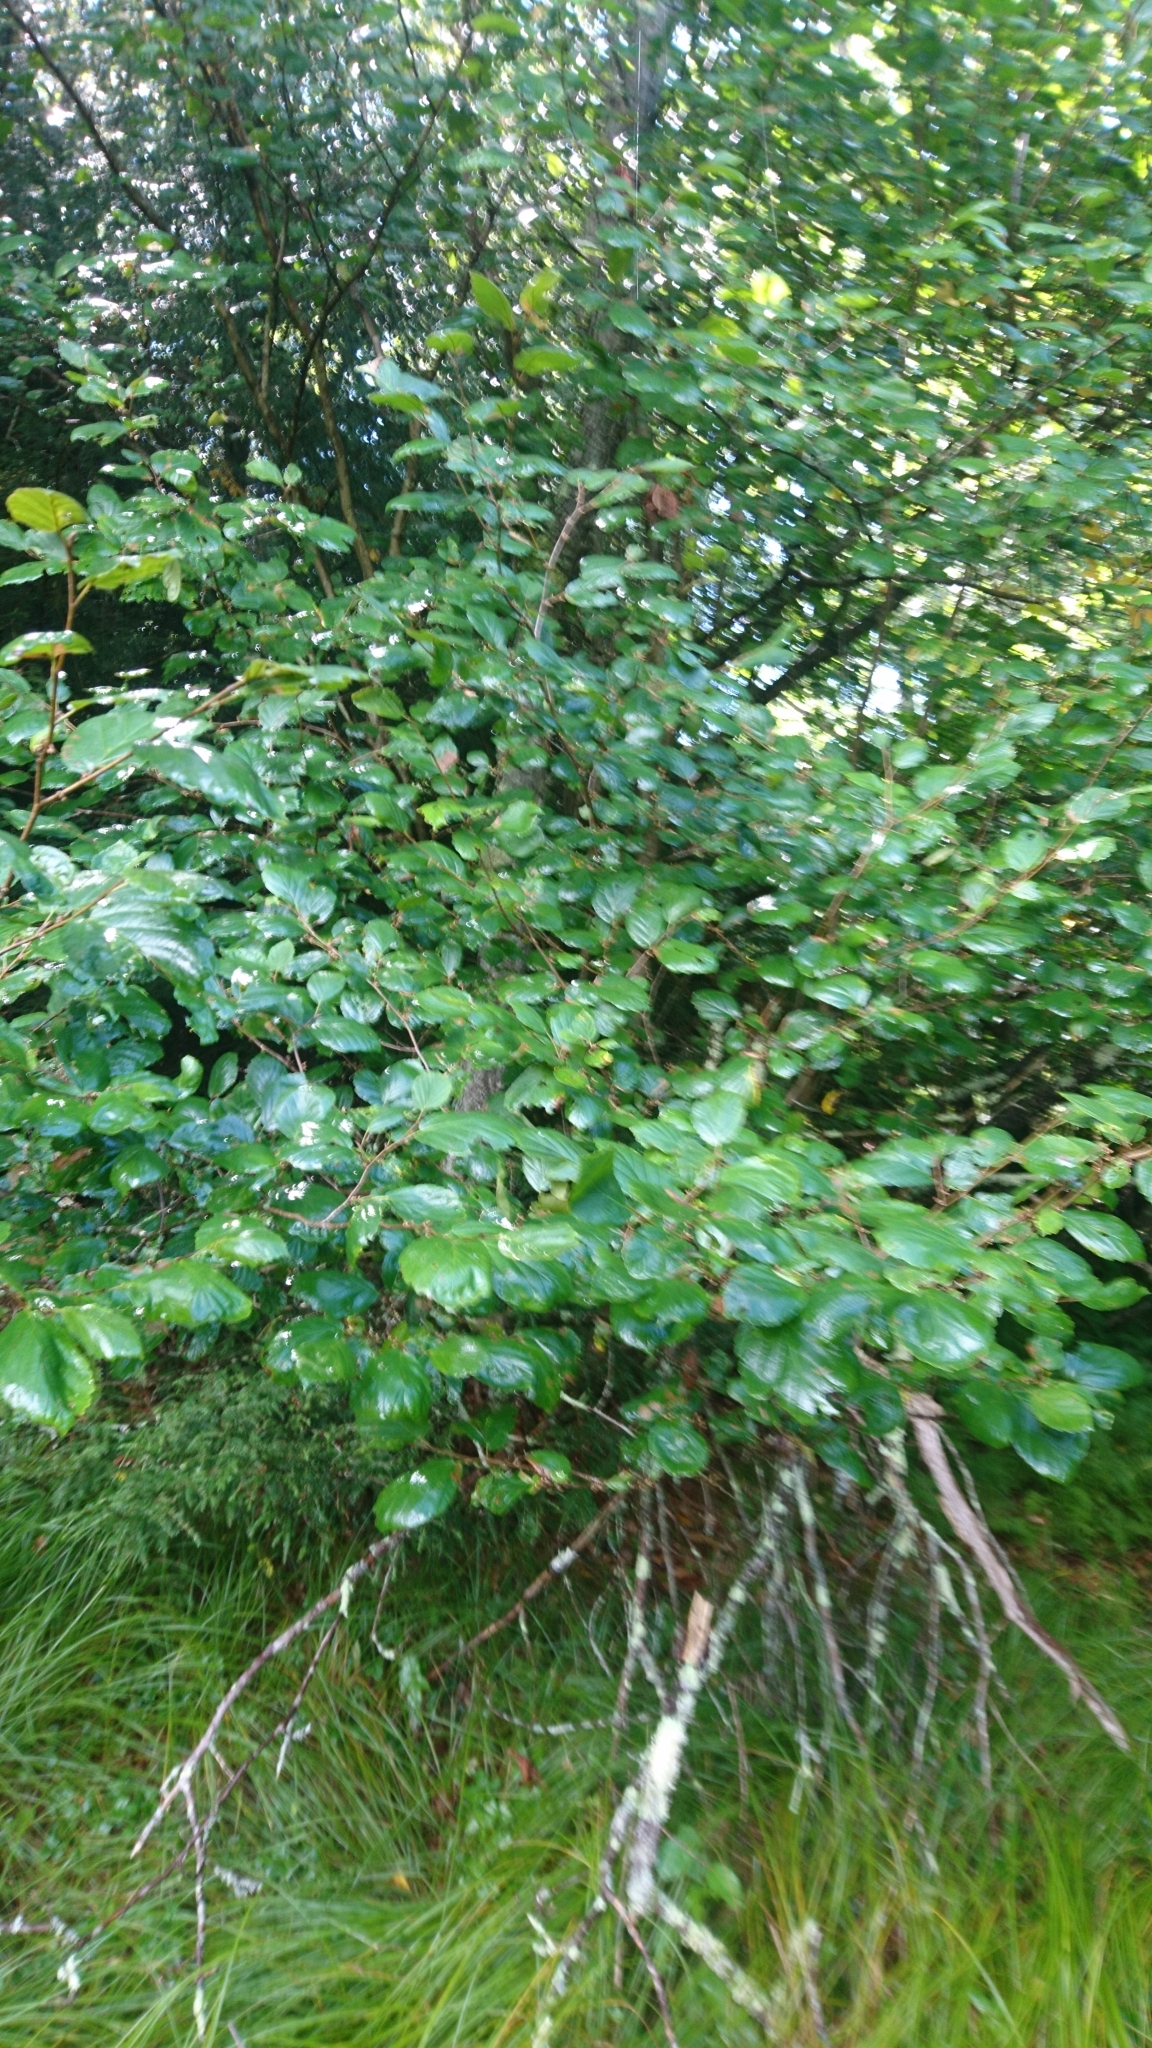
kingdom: Plantae
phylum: Tracheophyta
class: Magnoliopsida
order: Saxifragales
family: Hamamelidaceae
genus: Hamamelis
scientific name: Hamamelis virginiana
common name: Witch-hazel
